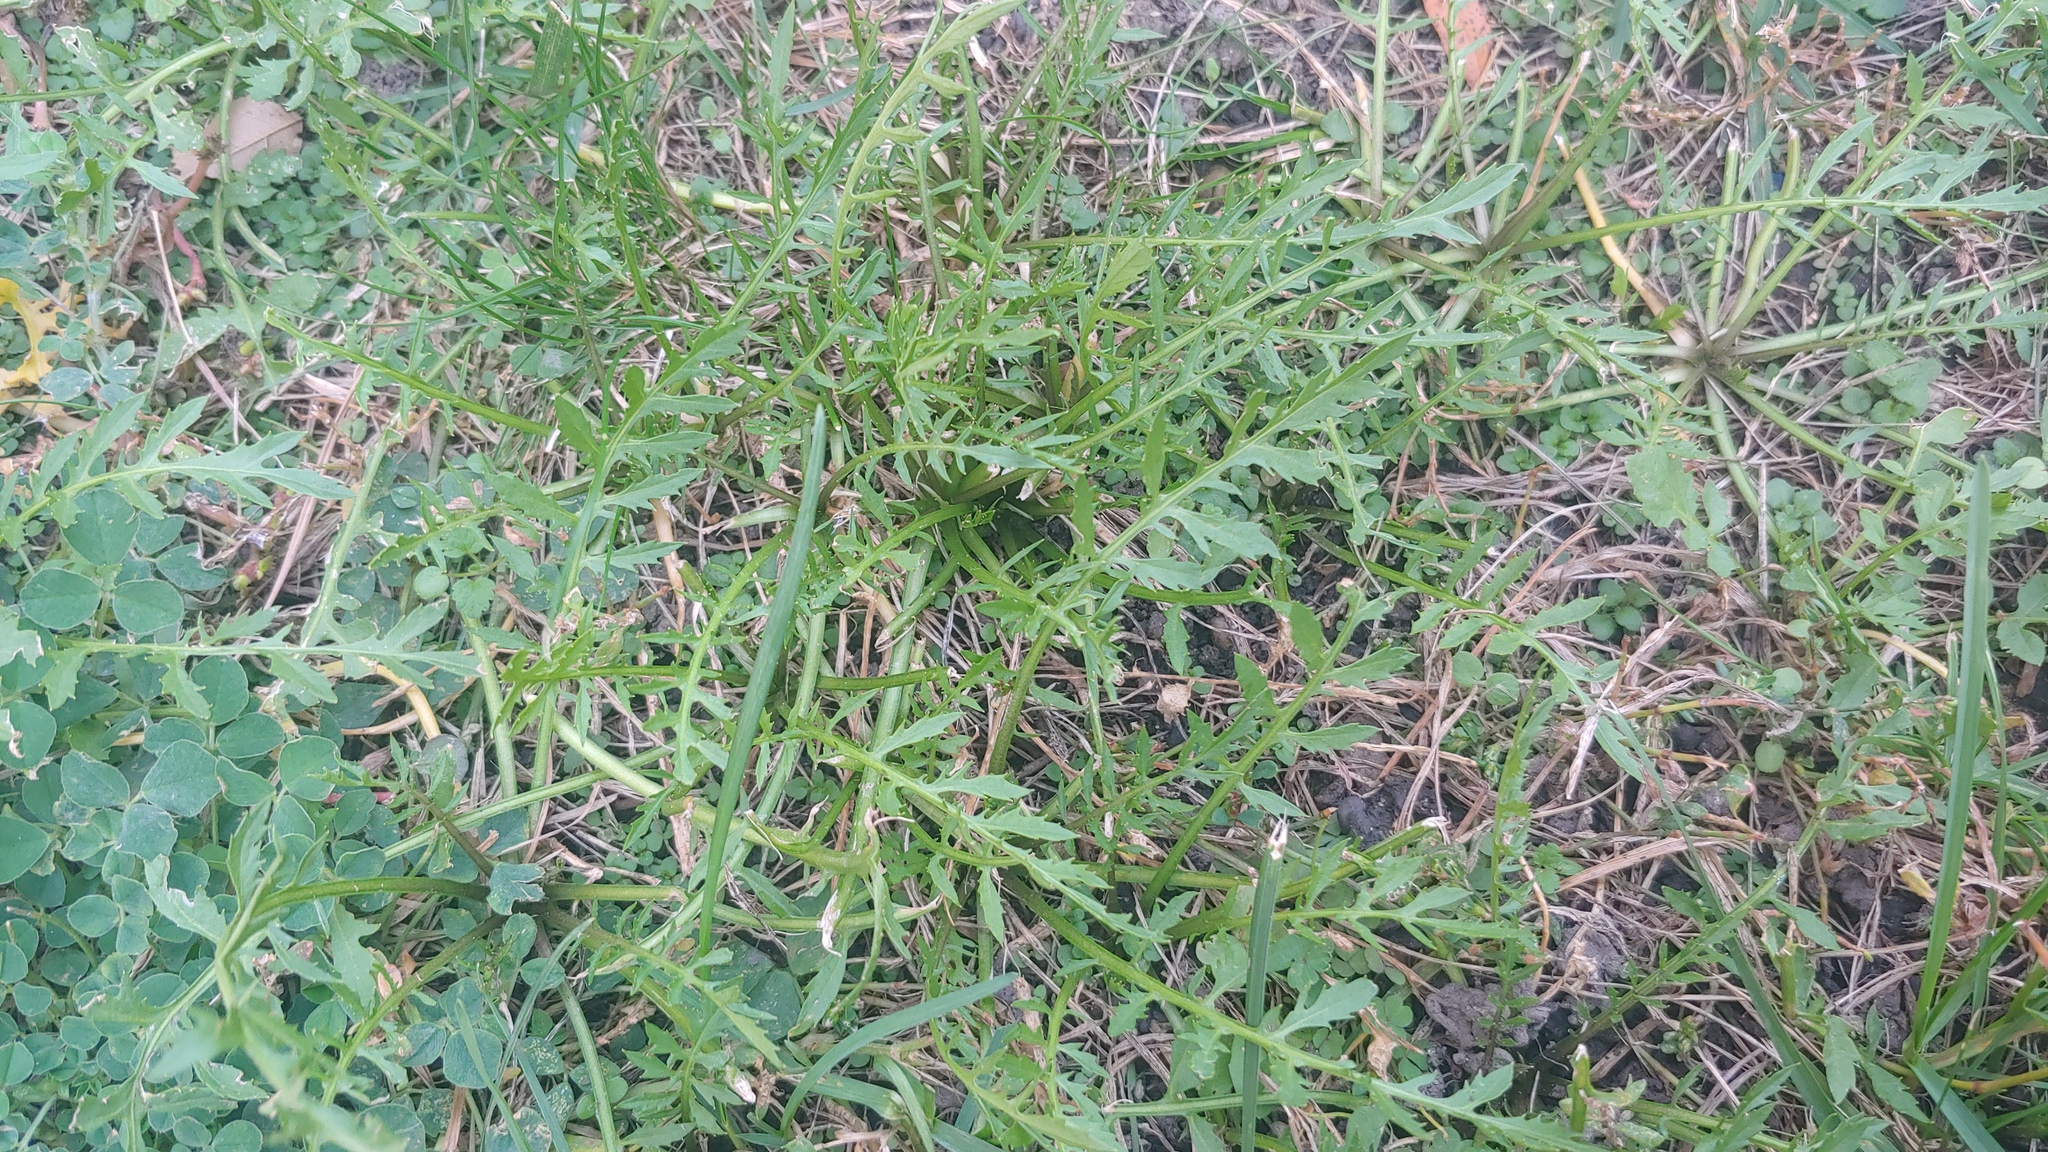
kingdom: Plantae
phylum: Tracheophyta
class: Magnoliopsida
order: Brassicales
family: Brassicaceae
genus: Rorippa
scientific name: Rorippa sylvestris
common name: Creeping yellowcress
